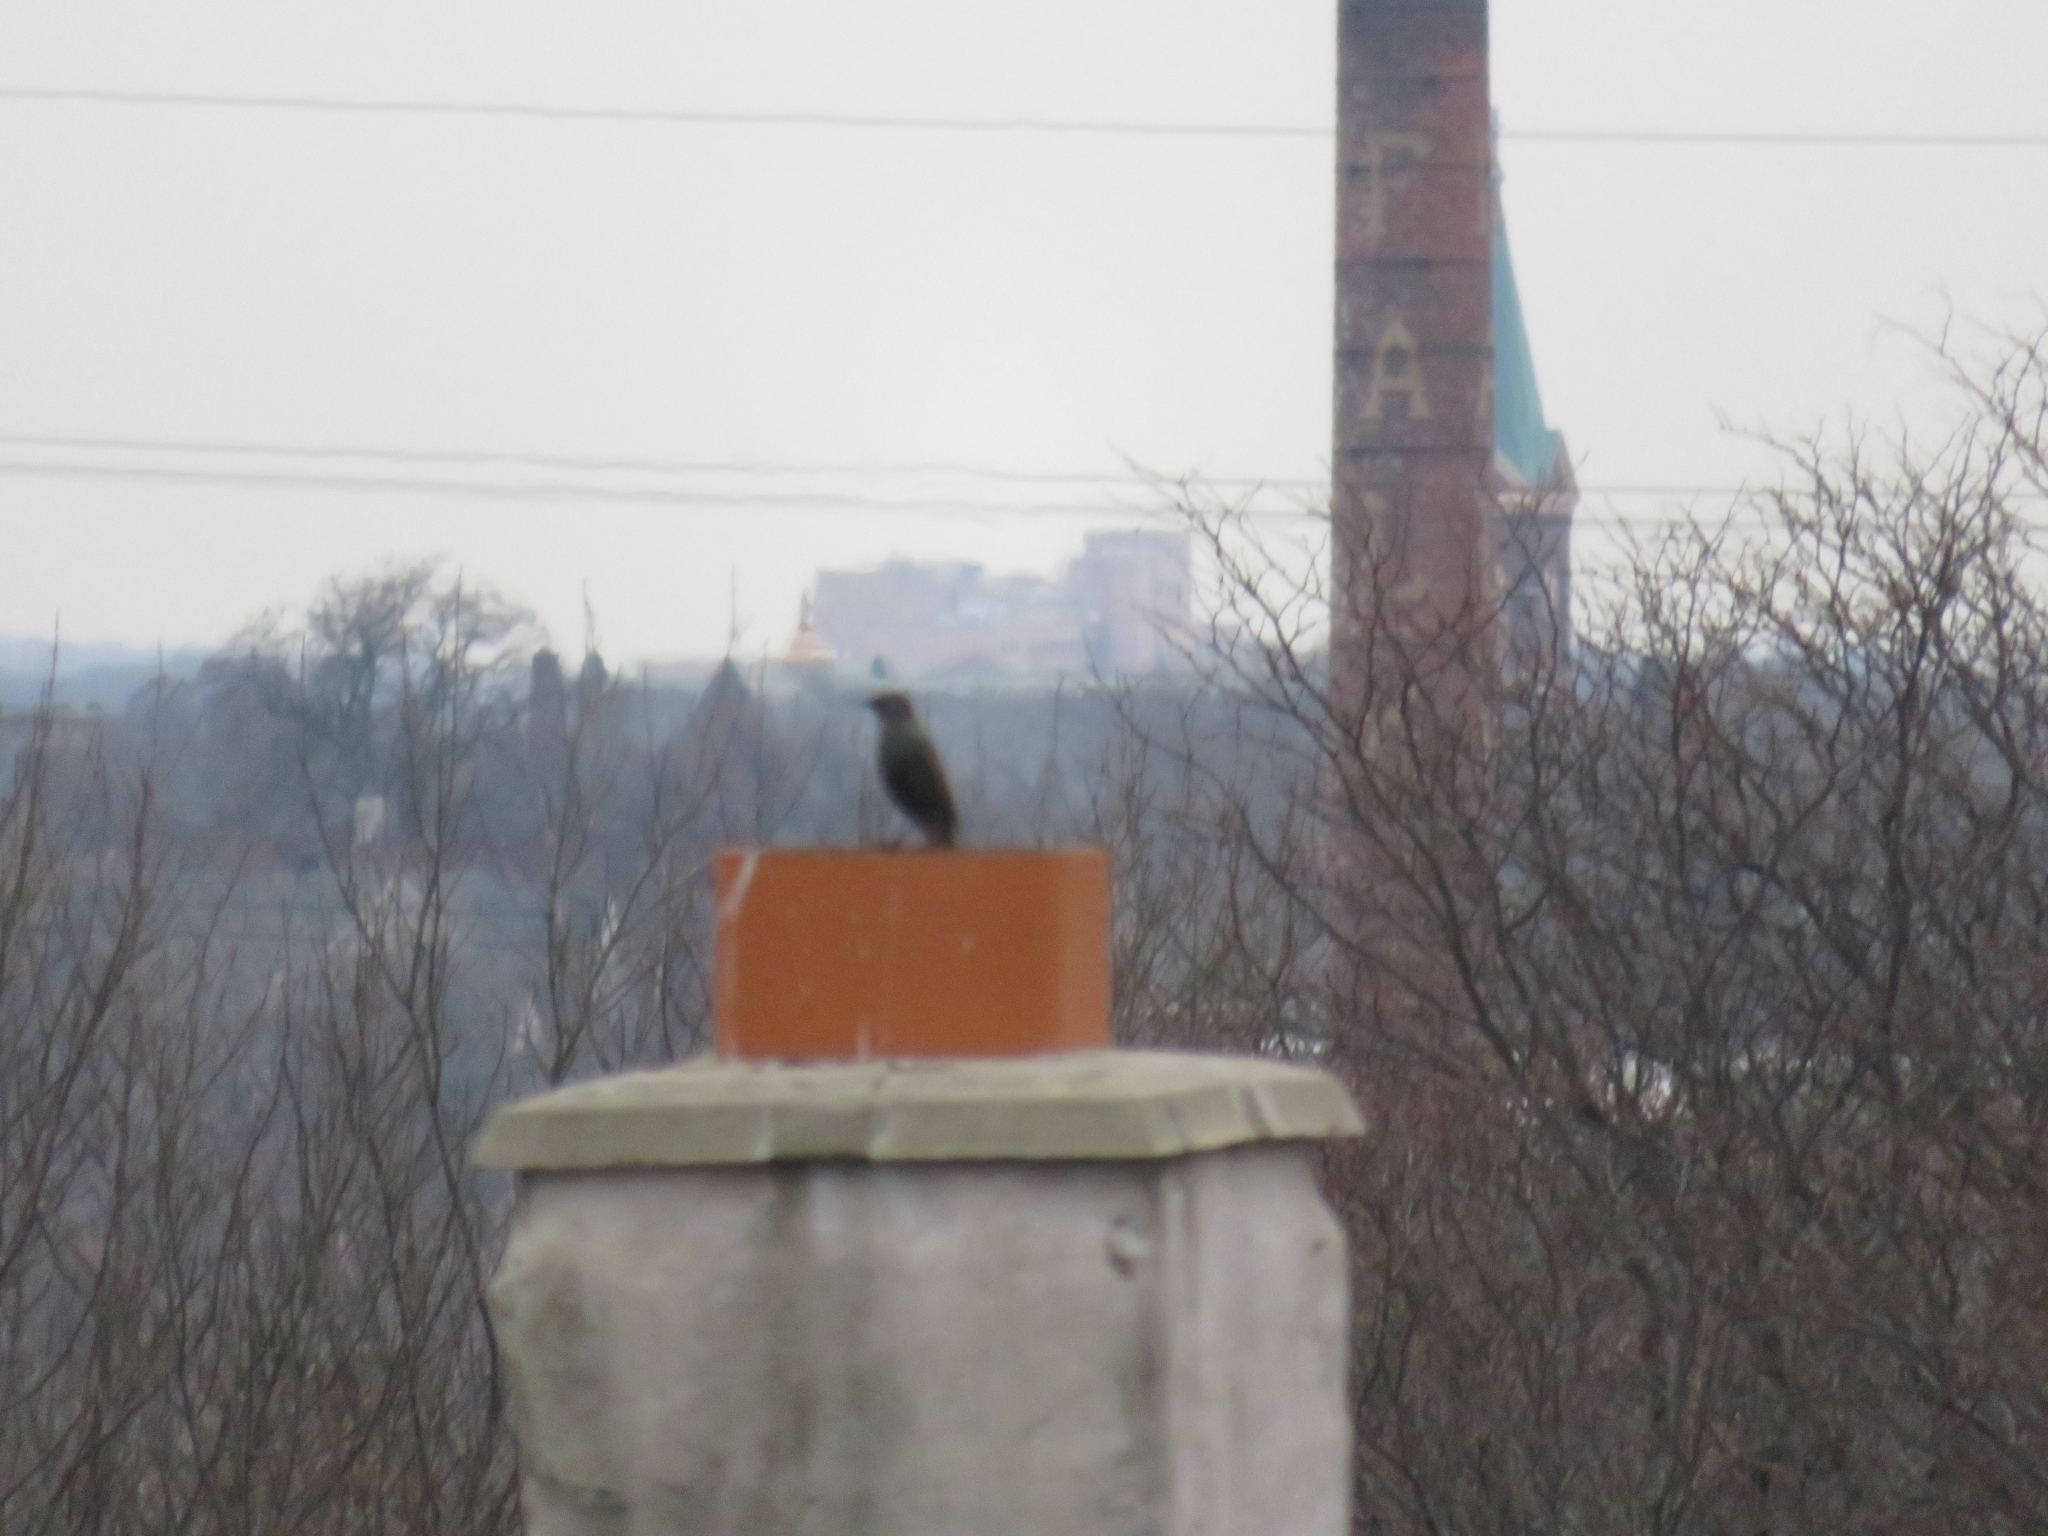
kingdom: Animalia
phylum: Chordata
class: Aves
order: Passeriformes
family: Sturnidae
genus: Sturnus
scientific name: Sturnus vulgaris
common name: Common starling
